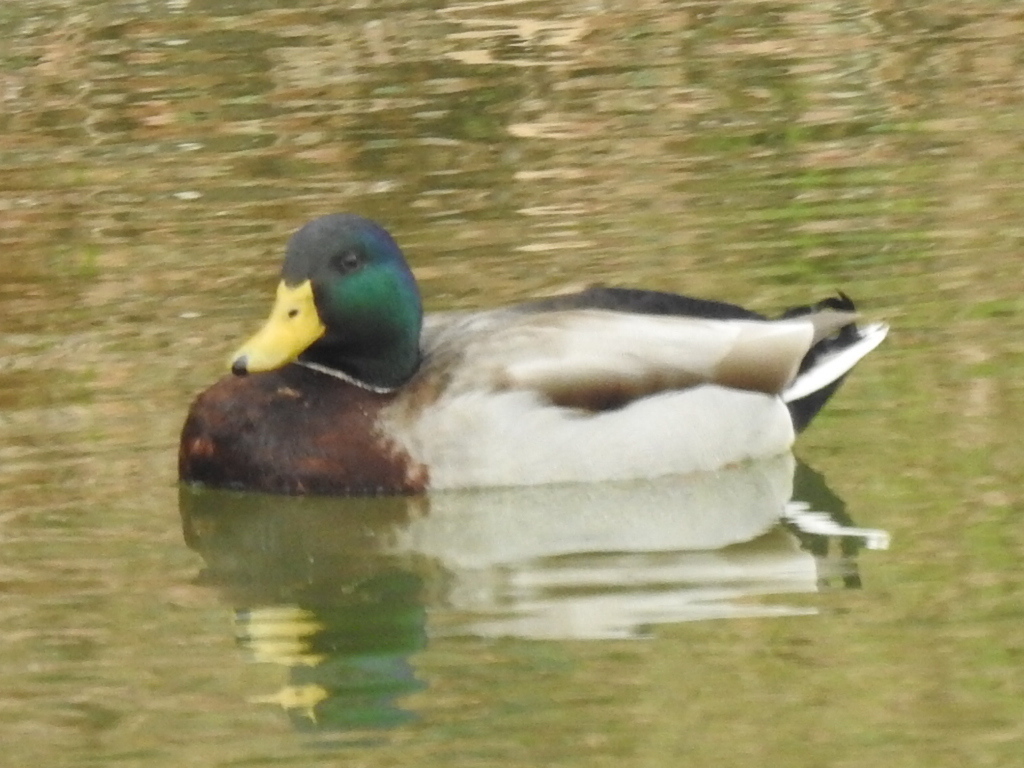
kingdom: Animalia
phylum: Chordata
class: Aves
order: Anseriformes
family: Anatidae
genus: Anas
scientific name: Anas platyrhynchos
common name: Mallard
